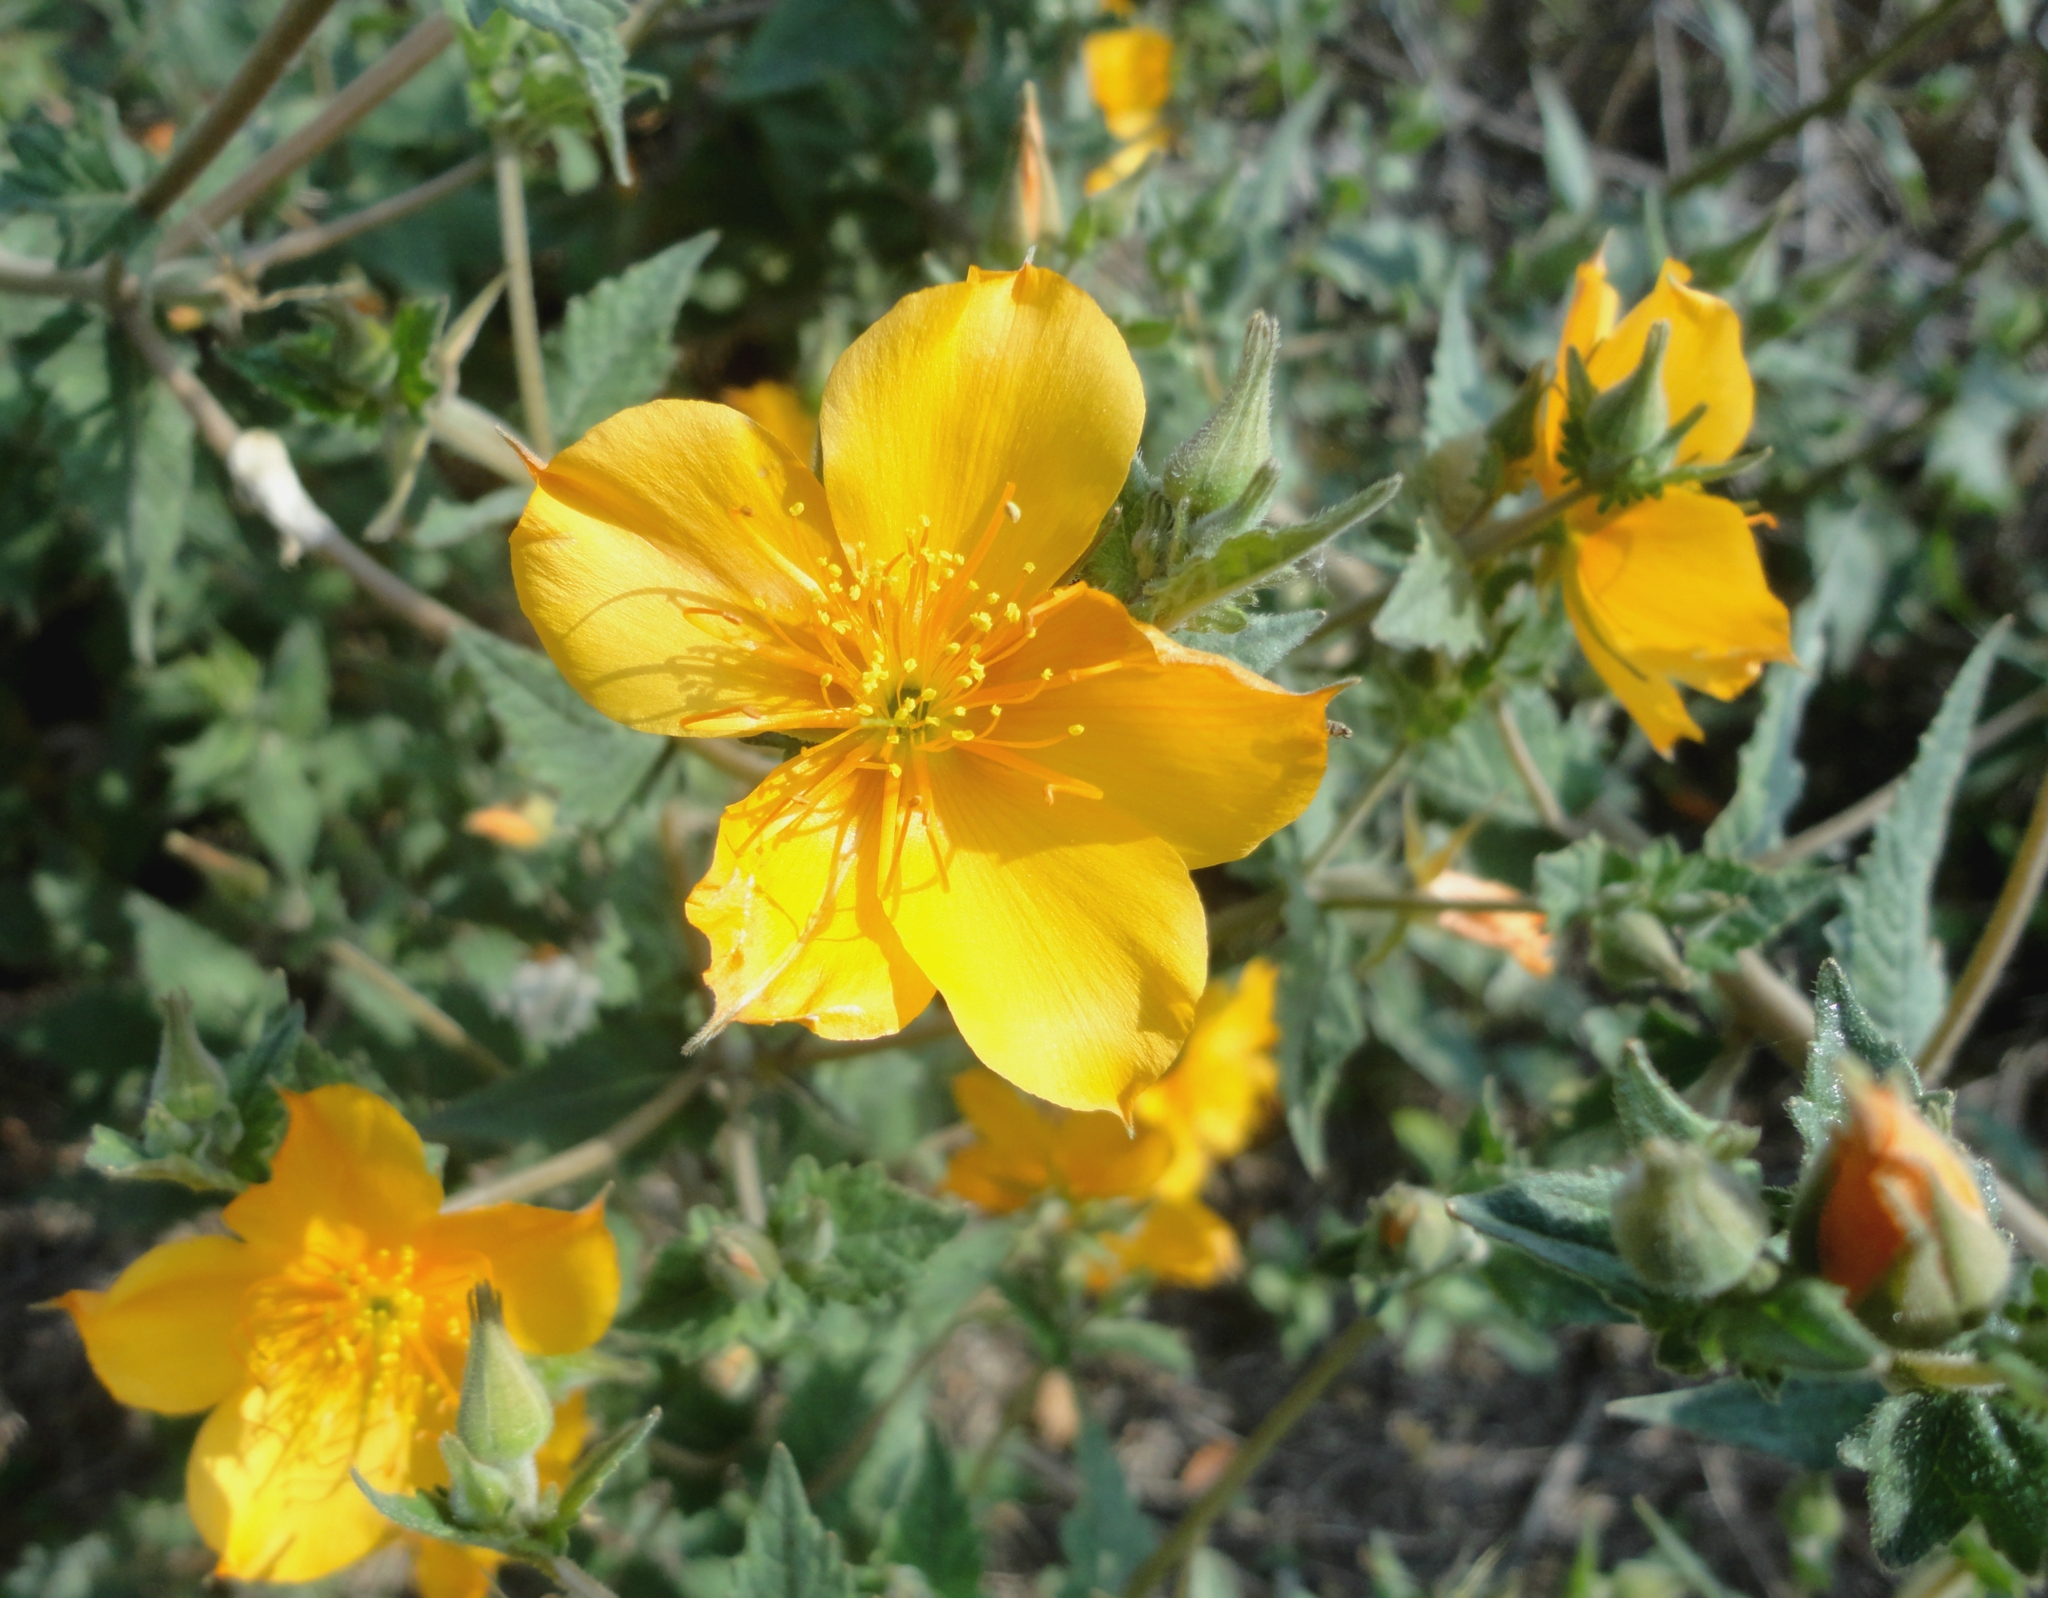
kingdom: Plantae
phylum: Tracheophyta
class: Magnoliopsida
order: Cornales
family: Loasaceae
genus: Mentzelia
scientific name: Mentzelia hispida
